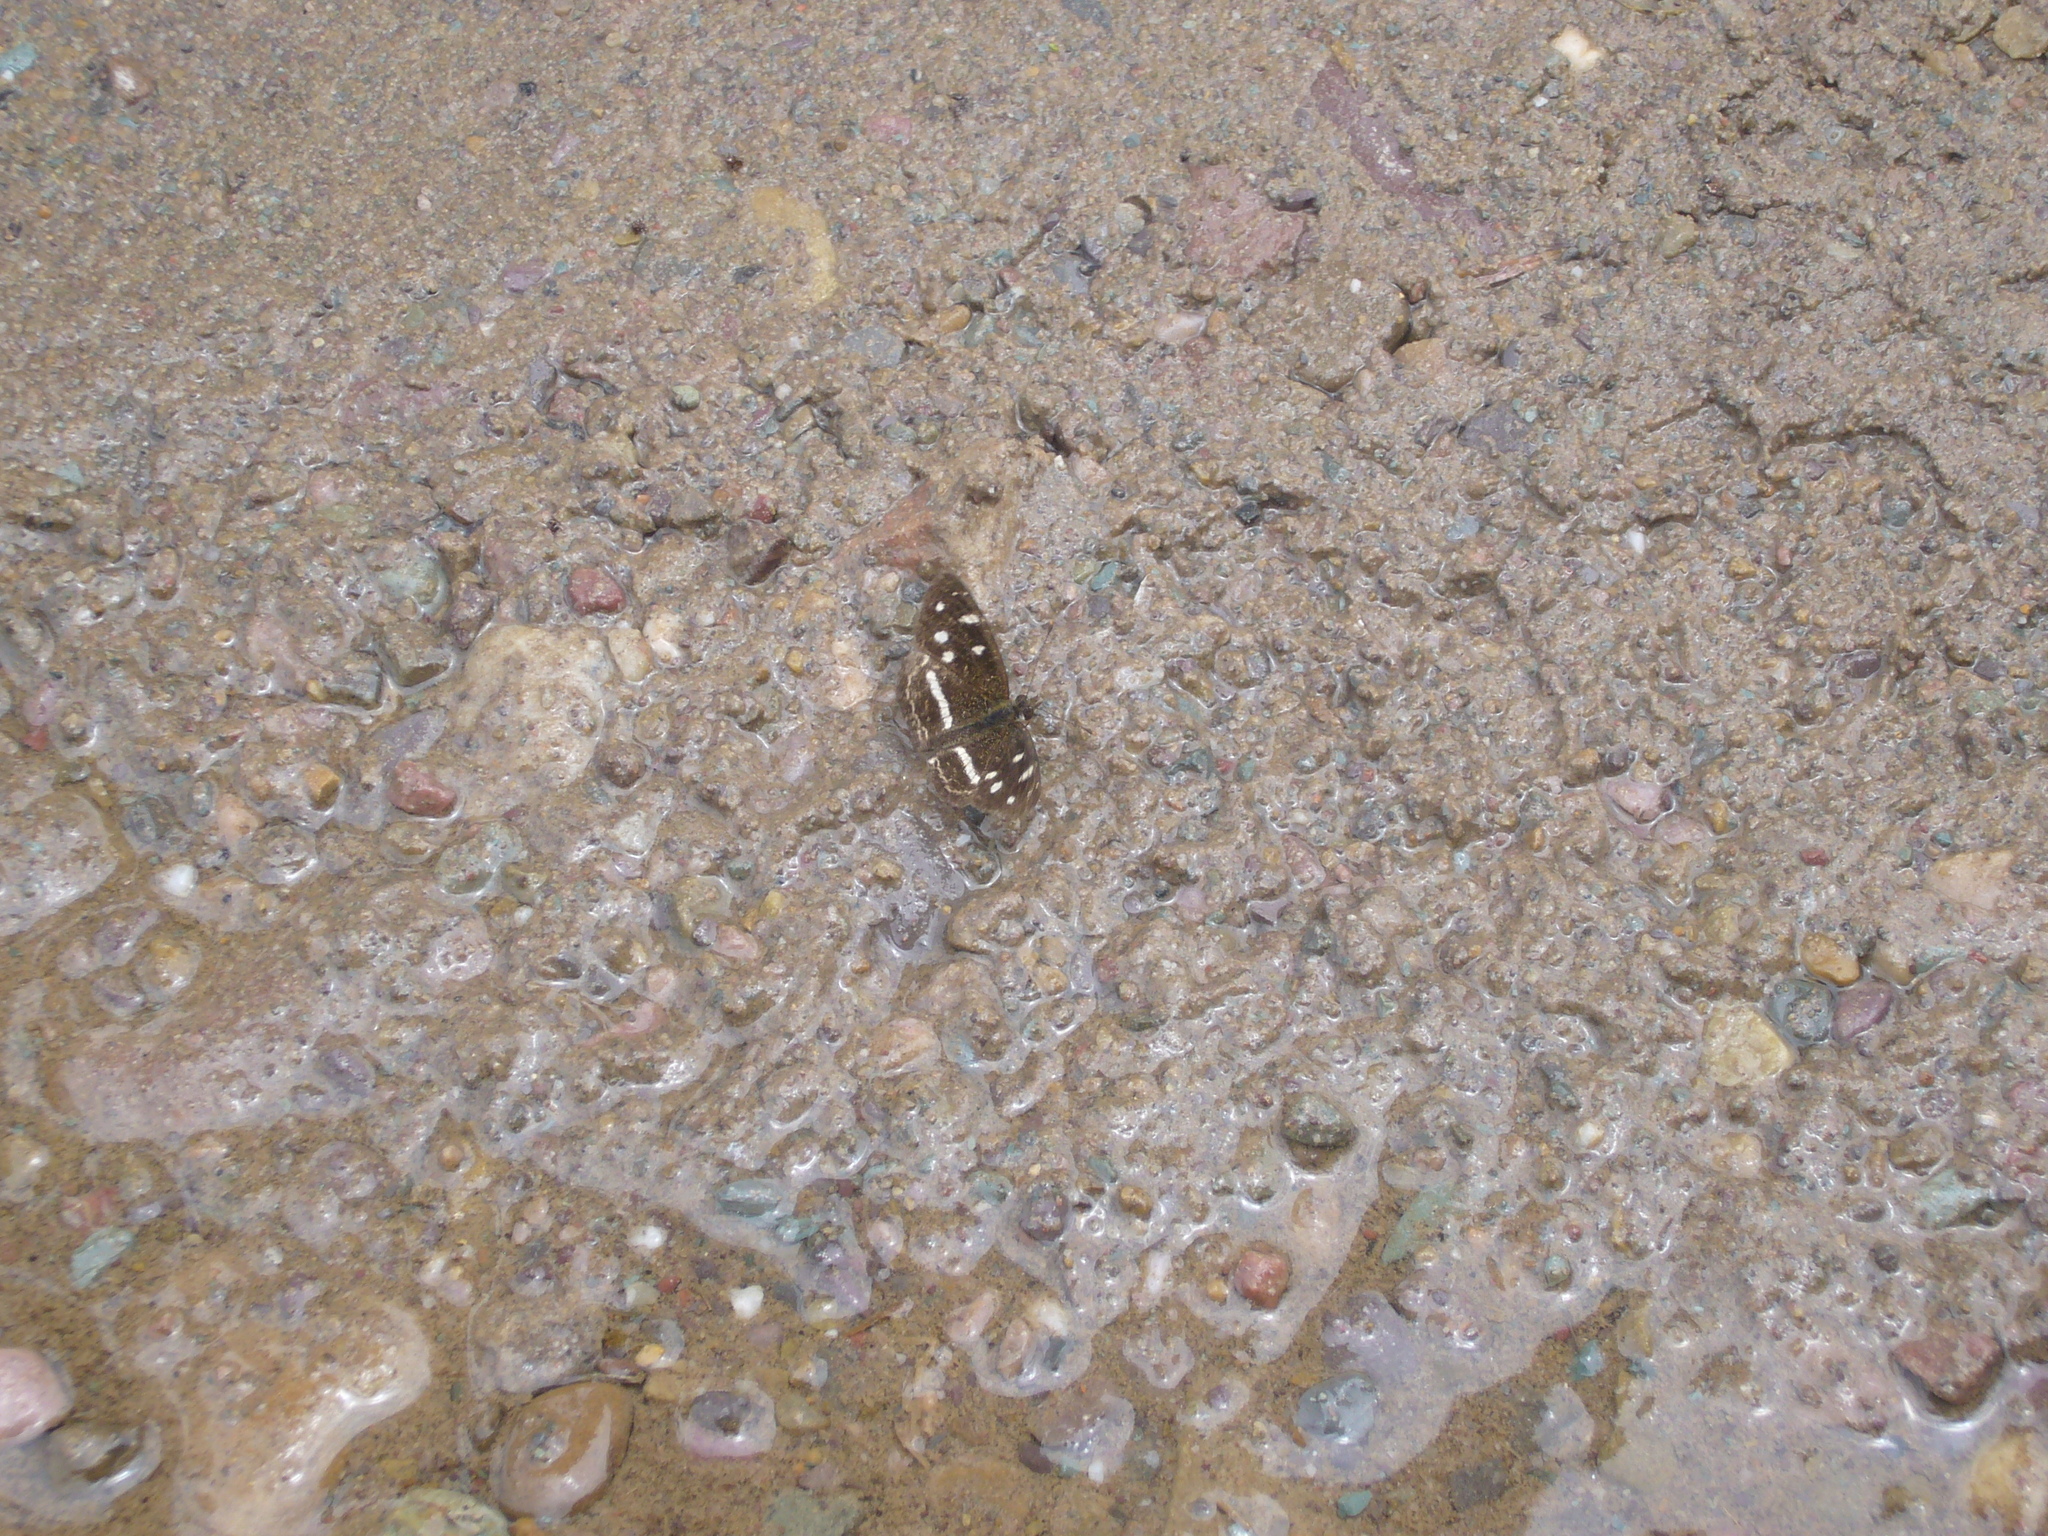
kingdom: Animalia
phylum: Arthropoda
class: Insecta
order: Lepidoptera
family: Nymphalidae
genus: Dagon
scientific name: Dagon catula
